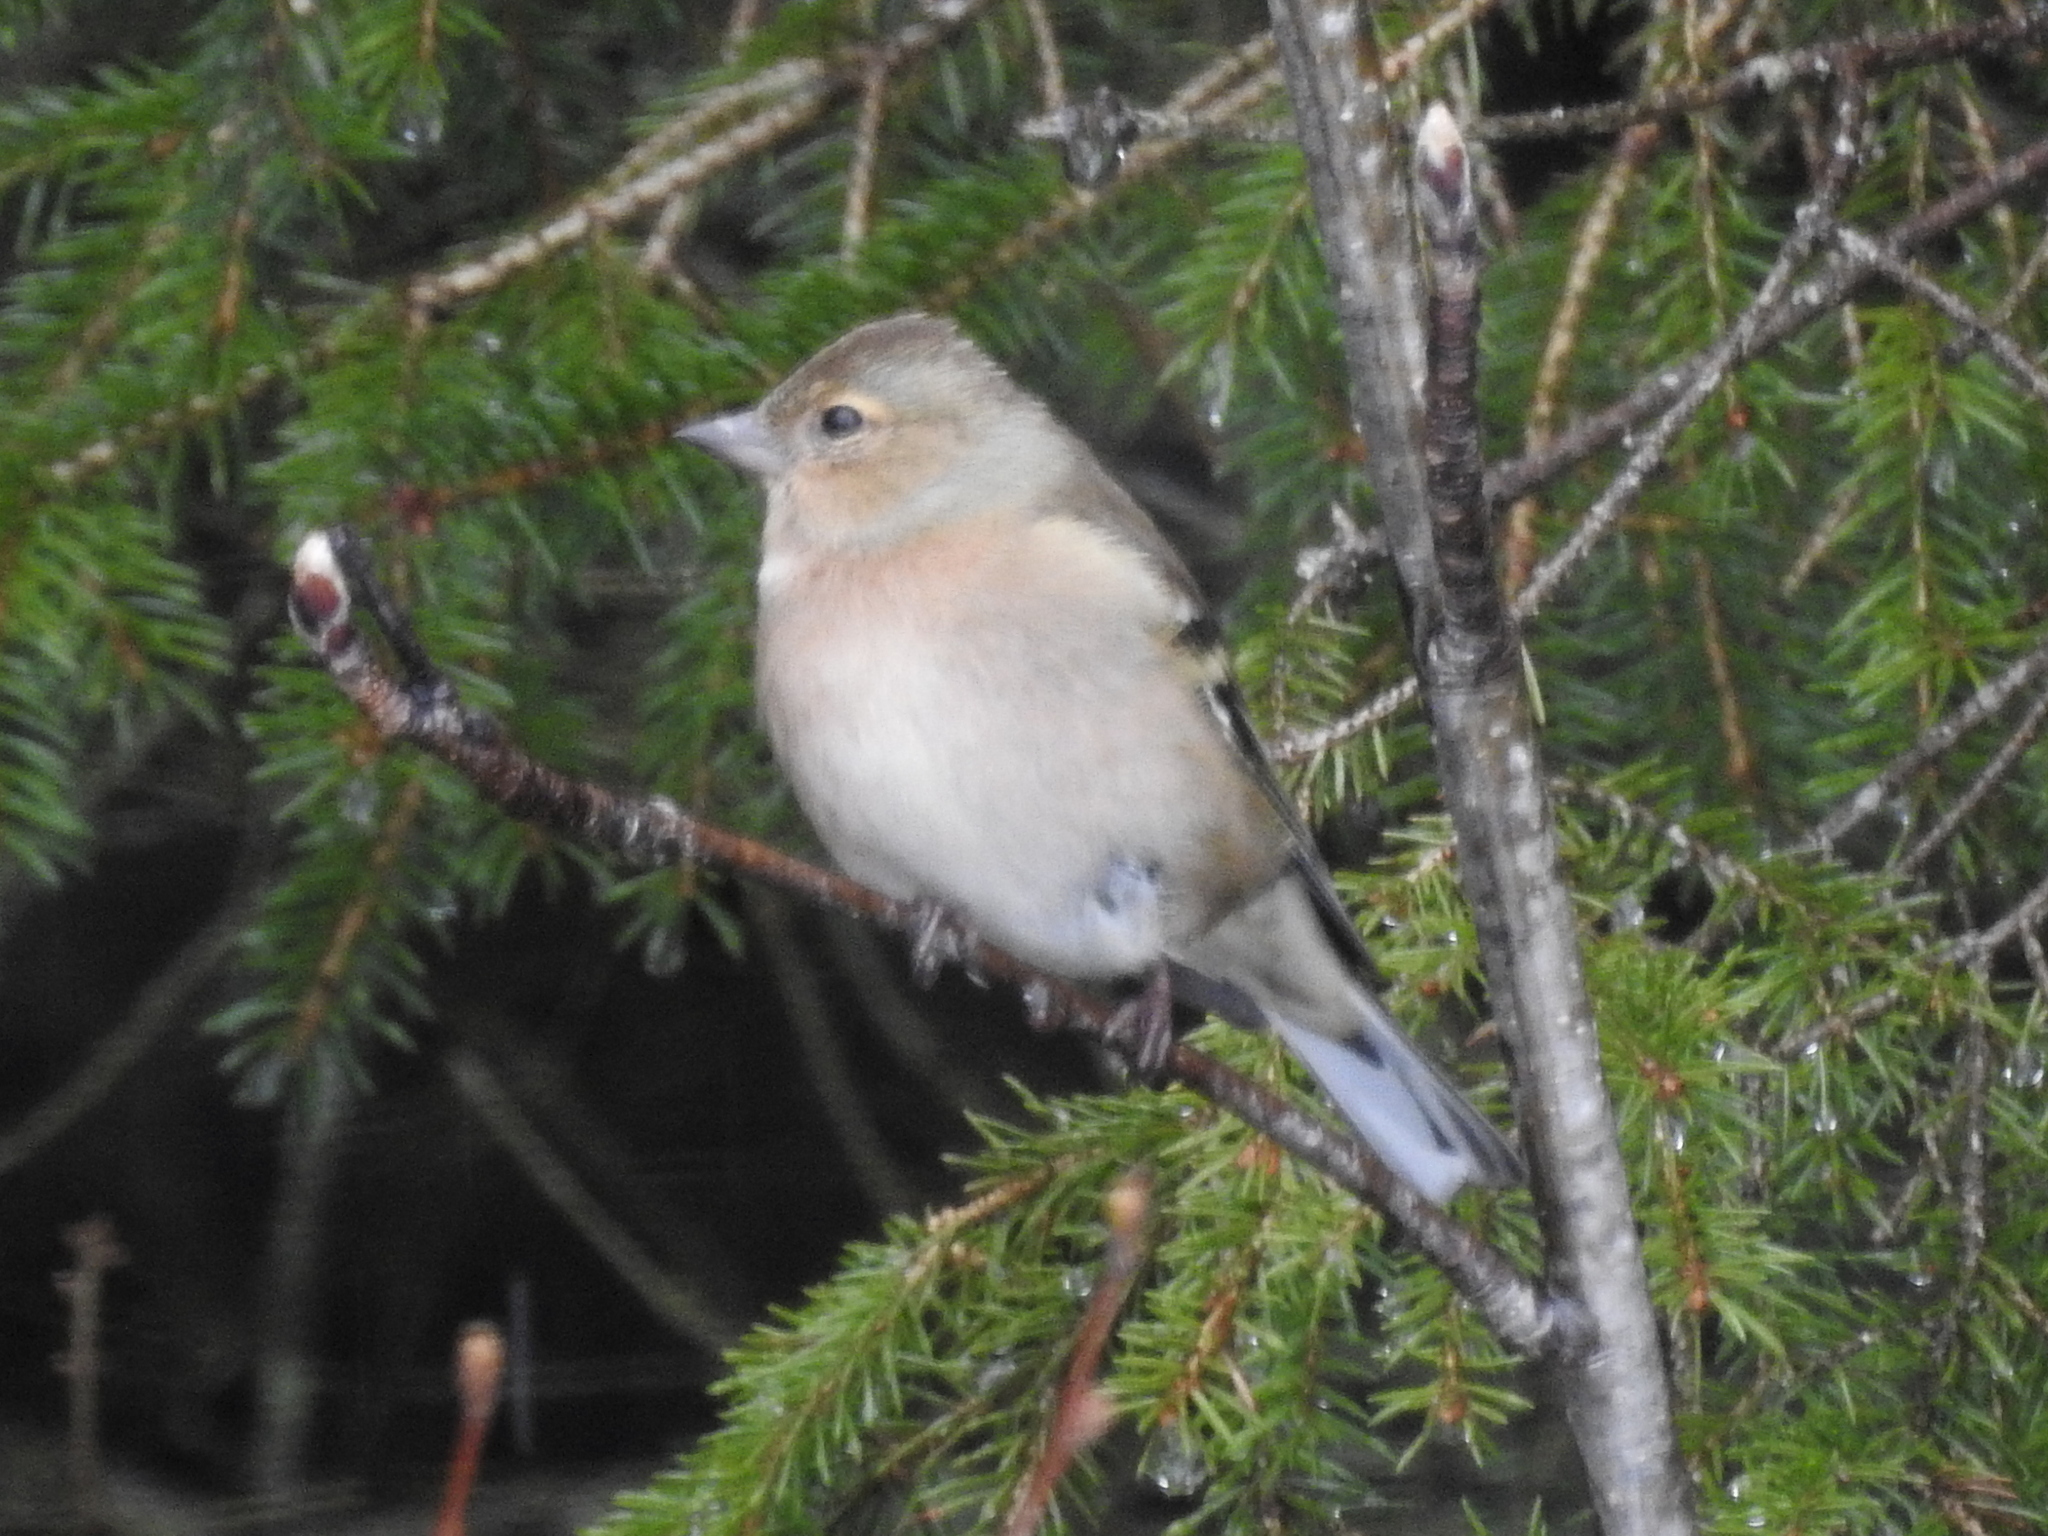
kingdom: Animalia
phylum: Chordata
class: Aves
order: Passeriformes
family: Fringillidae
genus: Fringilla
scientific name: Fringilla coelebs
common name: Common chaffinch
